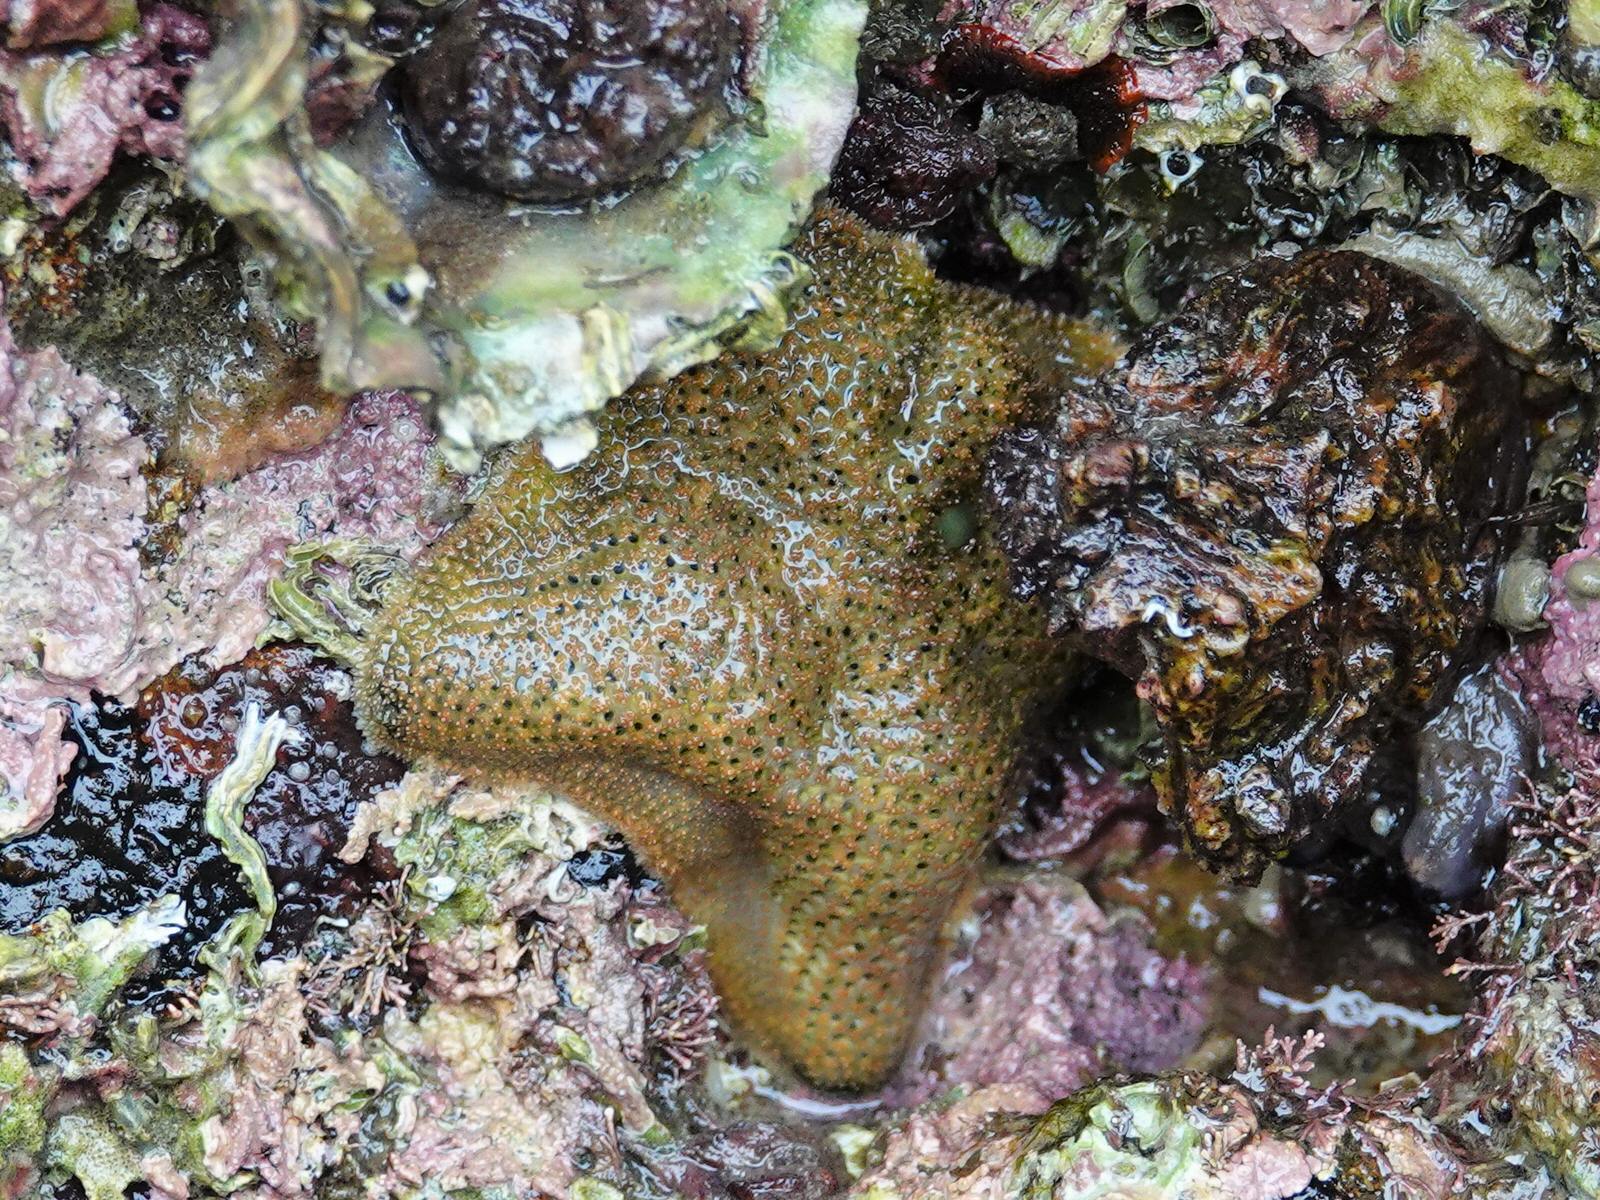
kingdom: Animalia
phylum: Echinodermata
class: Asteroidea
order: Valvatida
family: Asterinidae
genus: Patiriella
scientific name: Patiriella regularis
